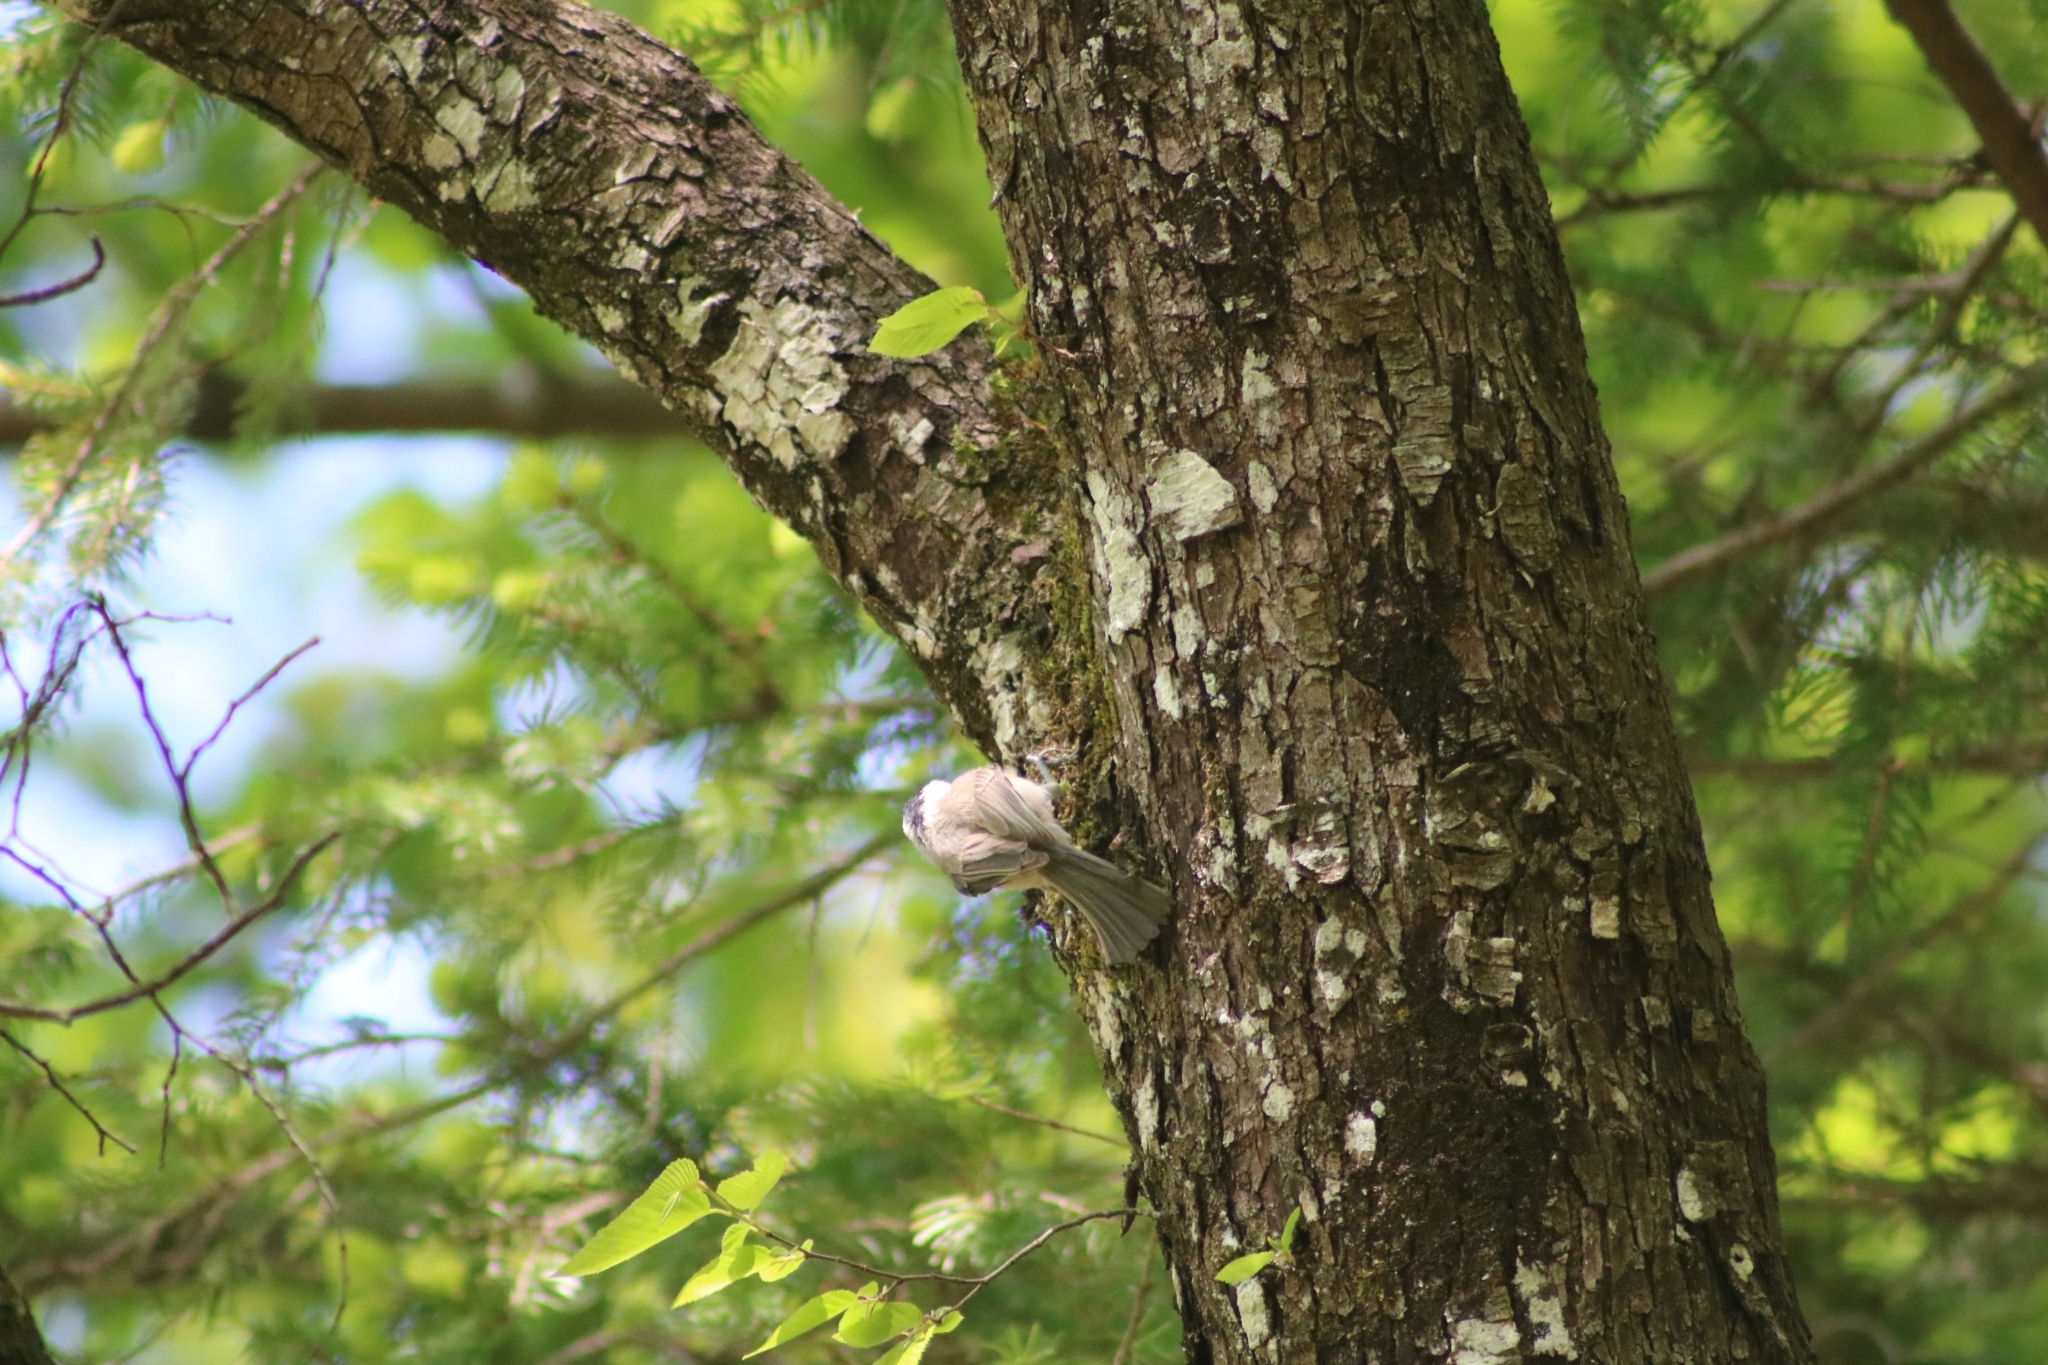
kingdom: Animalia
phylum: Chordata
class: Aves
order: Passeriformes
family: Paridae
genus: Poecile
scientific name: Poecile palustris
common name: Marsh tit
